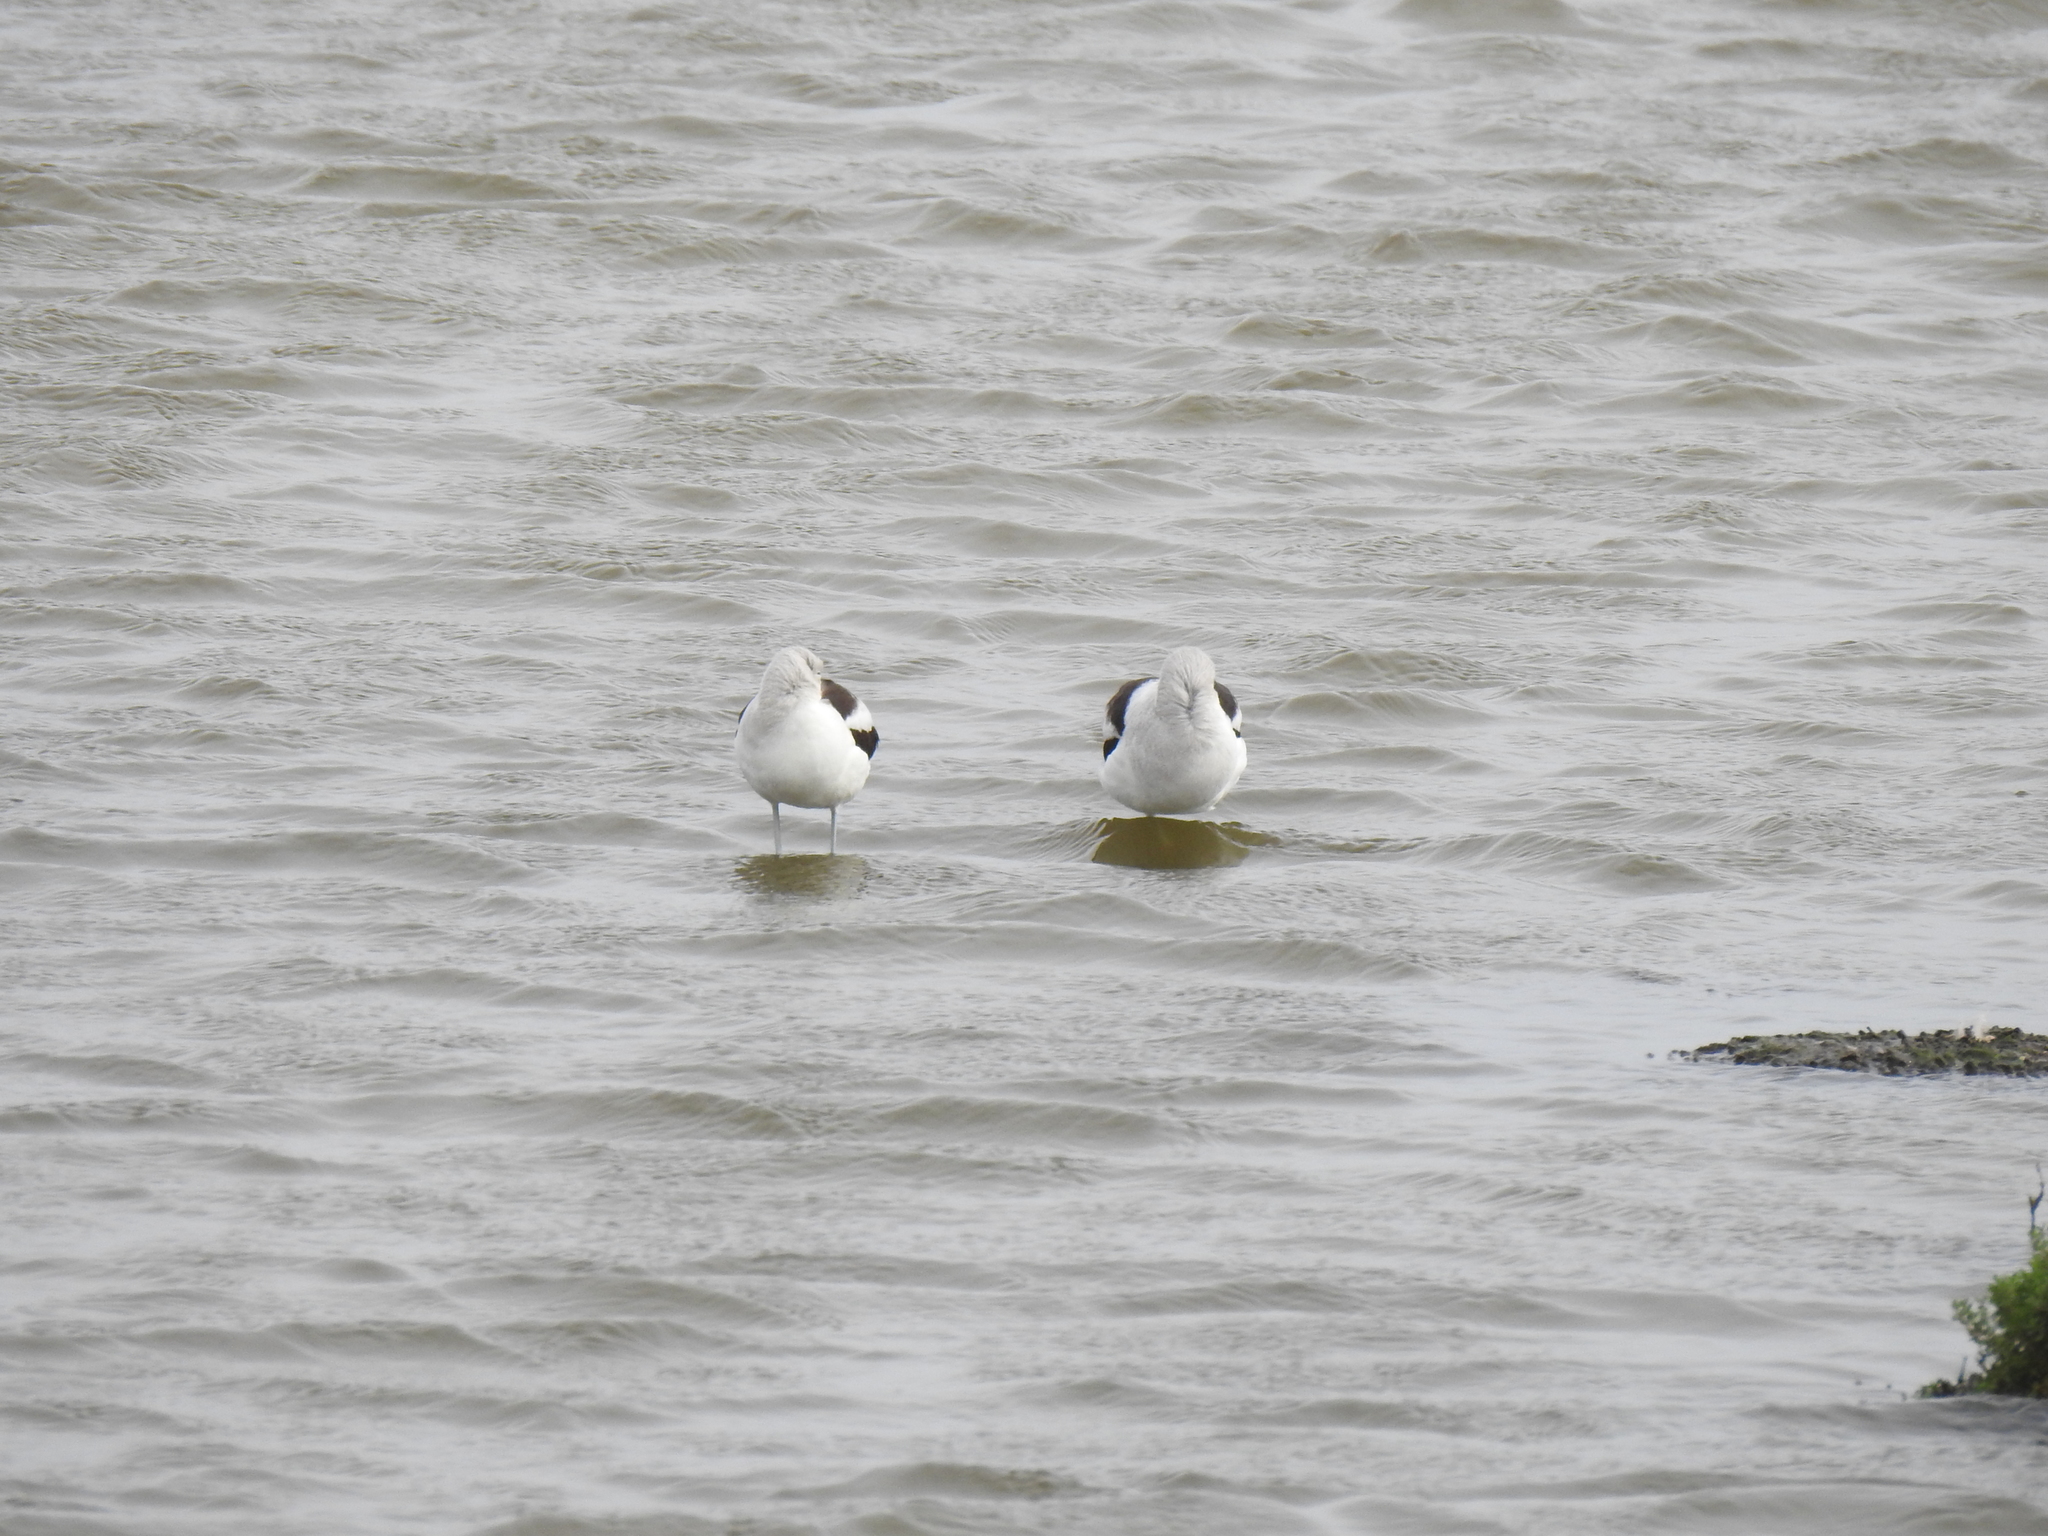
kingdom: Animalia
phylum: Chordata
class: Aves
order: Charadriiformes
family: Recurvirostridae
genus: Recurvirostra
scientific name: Recurvirostra americana
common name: American avocet
